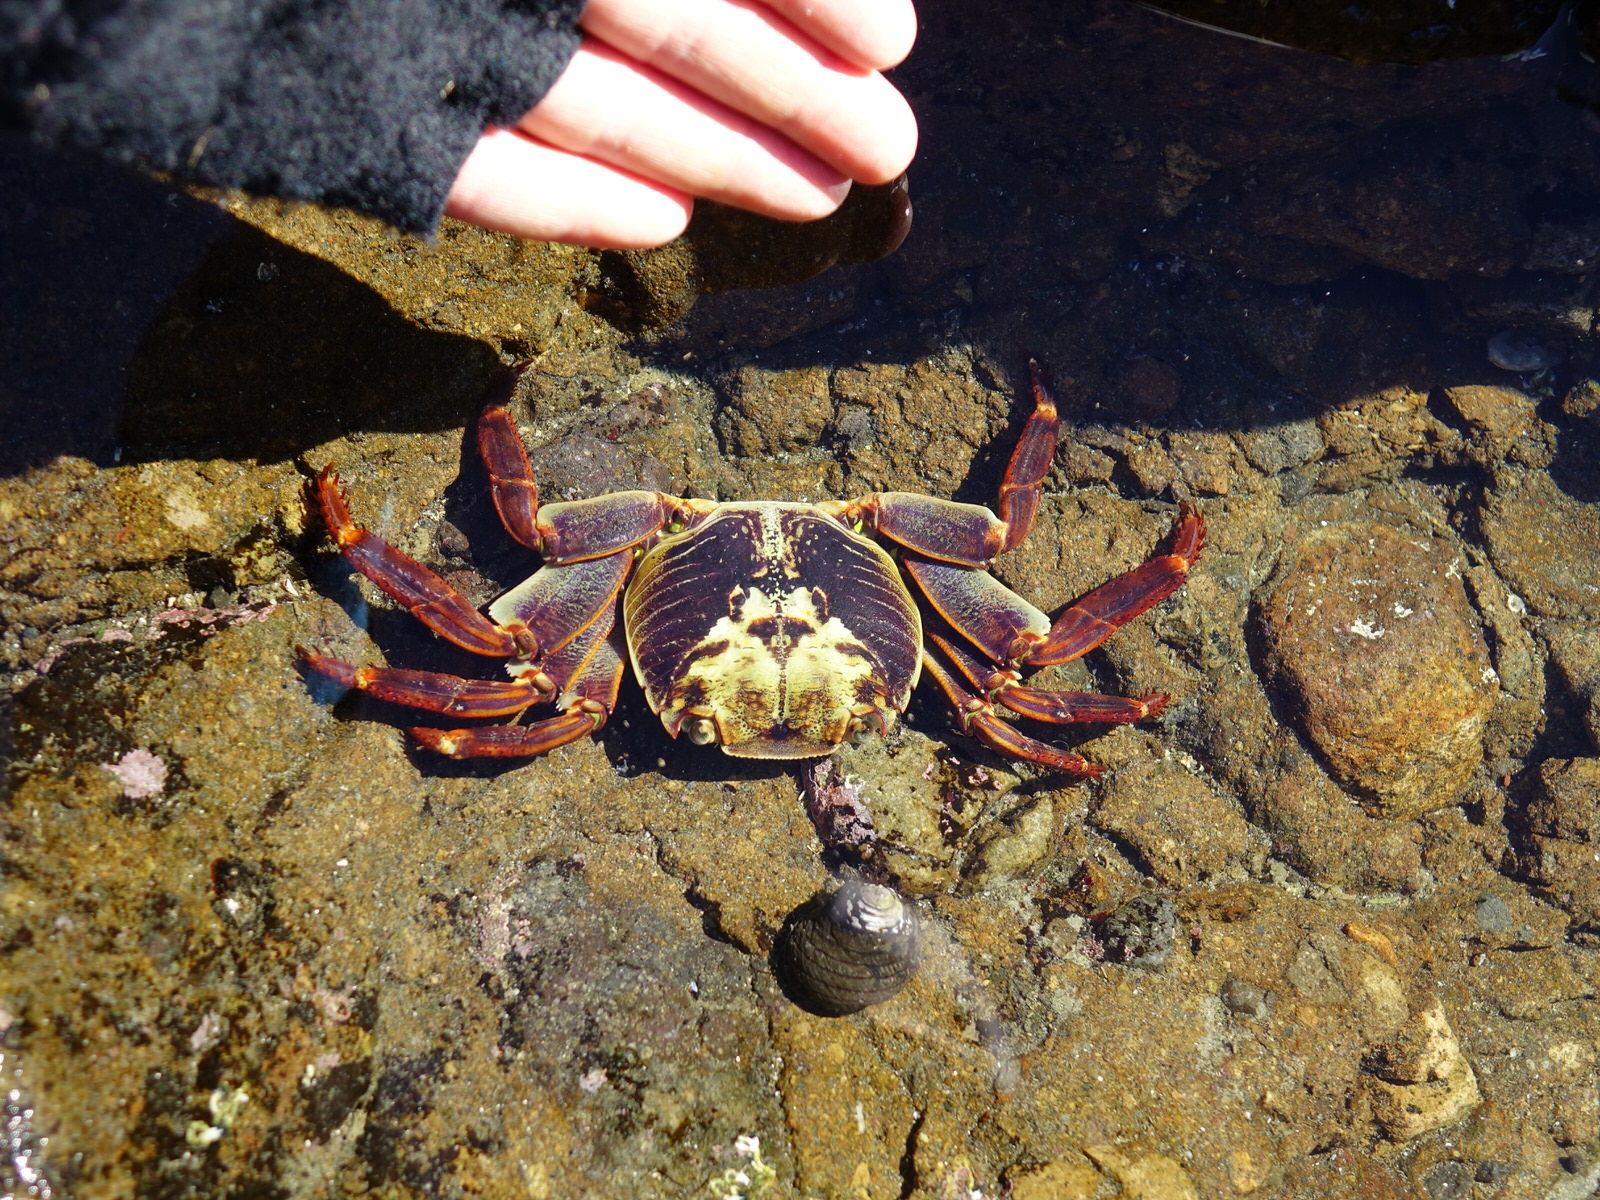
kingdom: Animalia
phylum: Arthropoda
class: Malacostraca
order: Decapoda
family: Grapsidae
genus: Leptograpsus
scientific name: Leptograpsus variegatus
